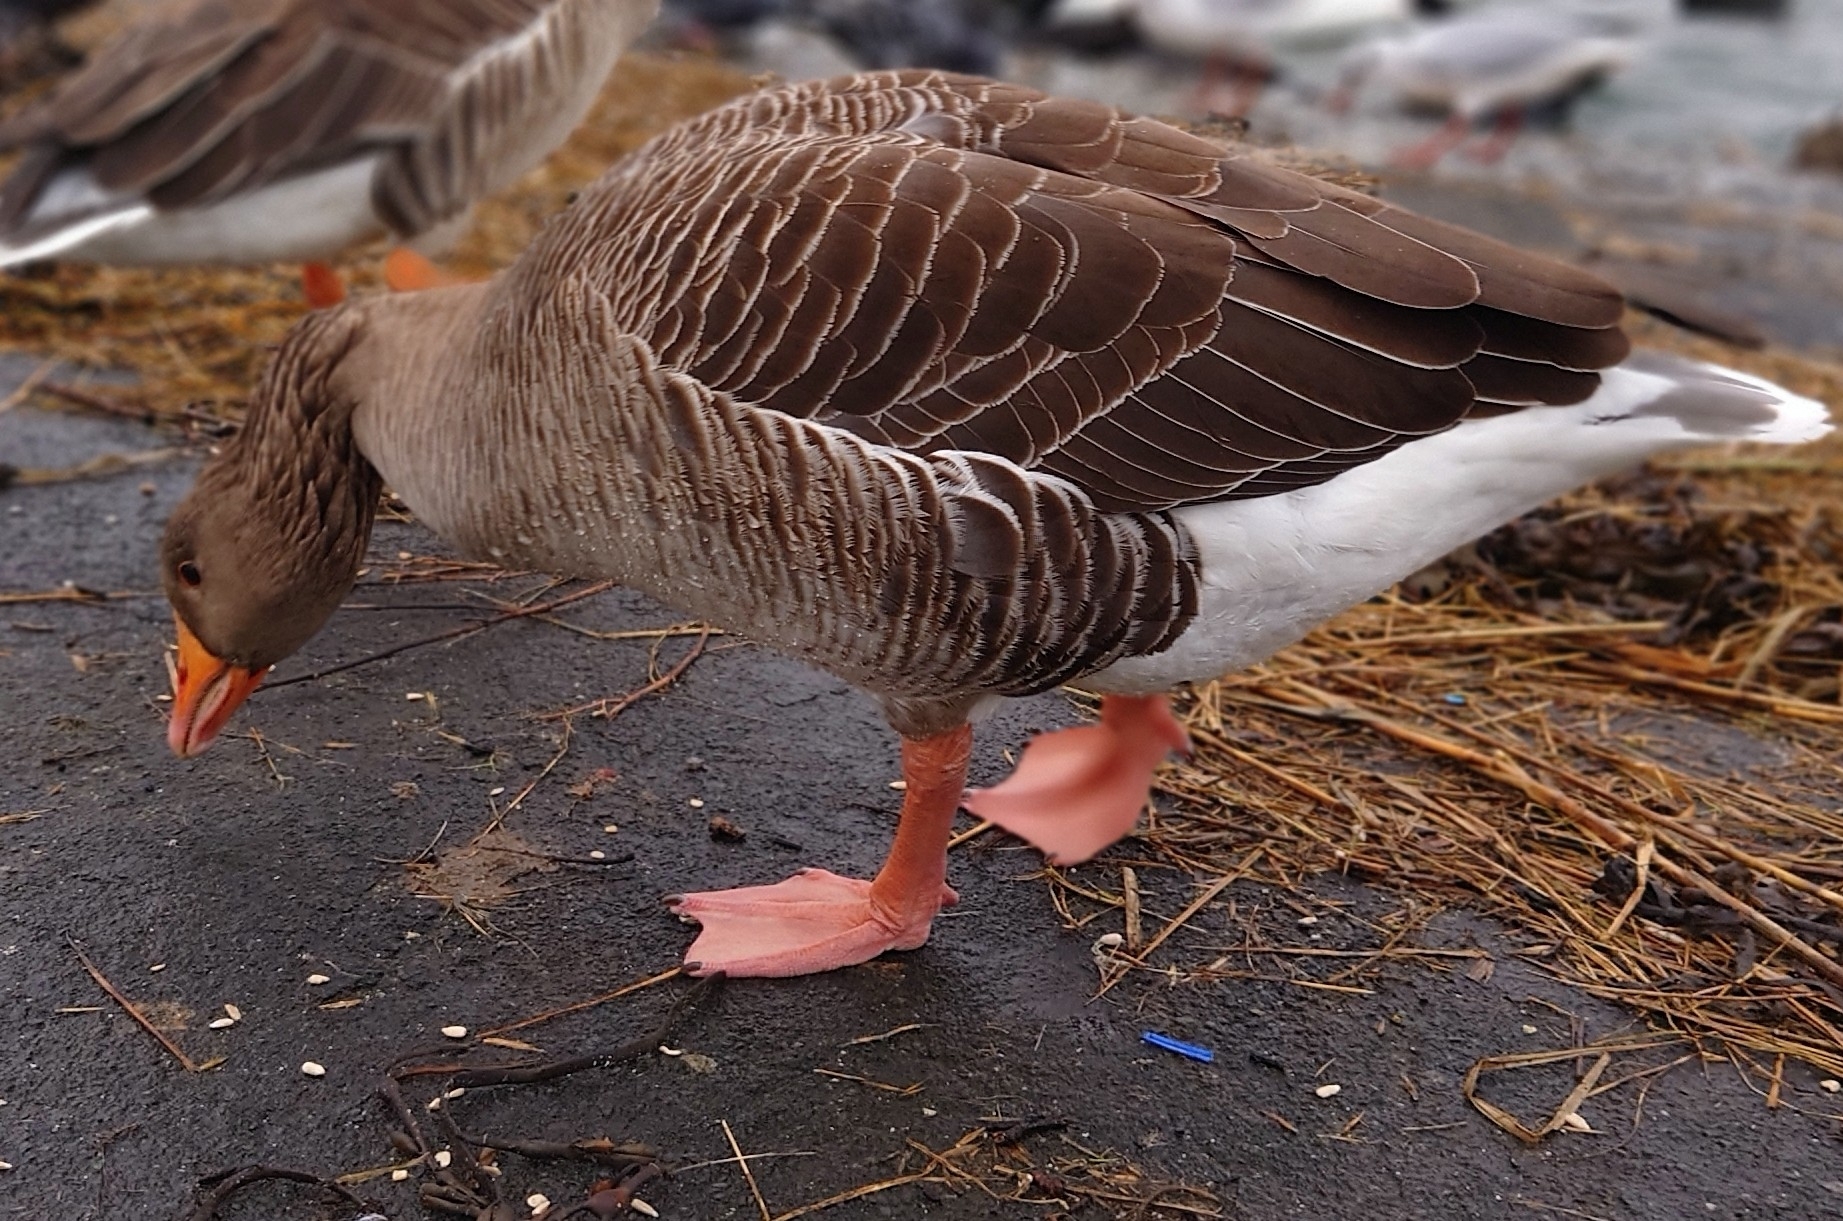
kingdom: Animalia
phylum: Chordata
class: Aves
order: Anseriformes
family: Anatidae
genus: Anser
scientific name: Anser anser
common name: Greylag goose
